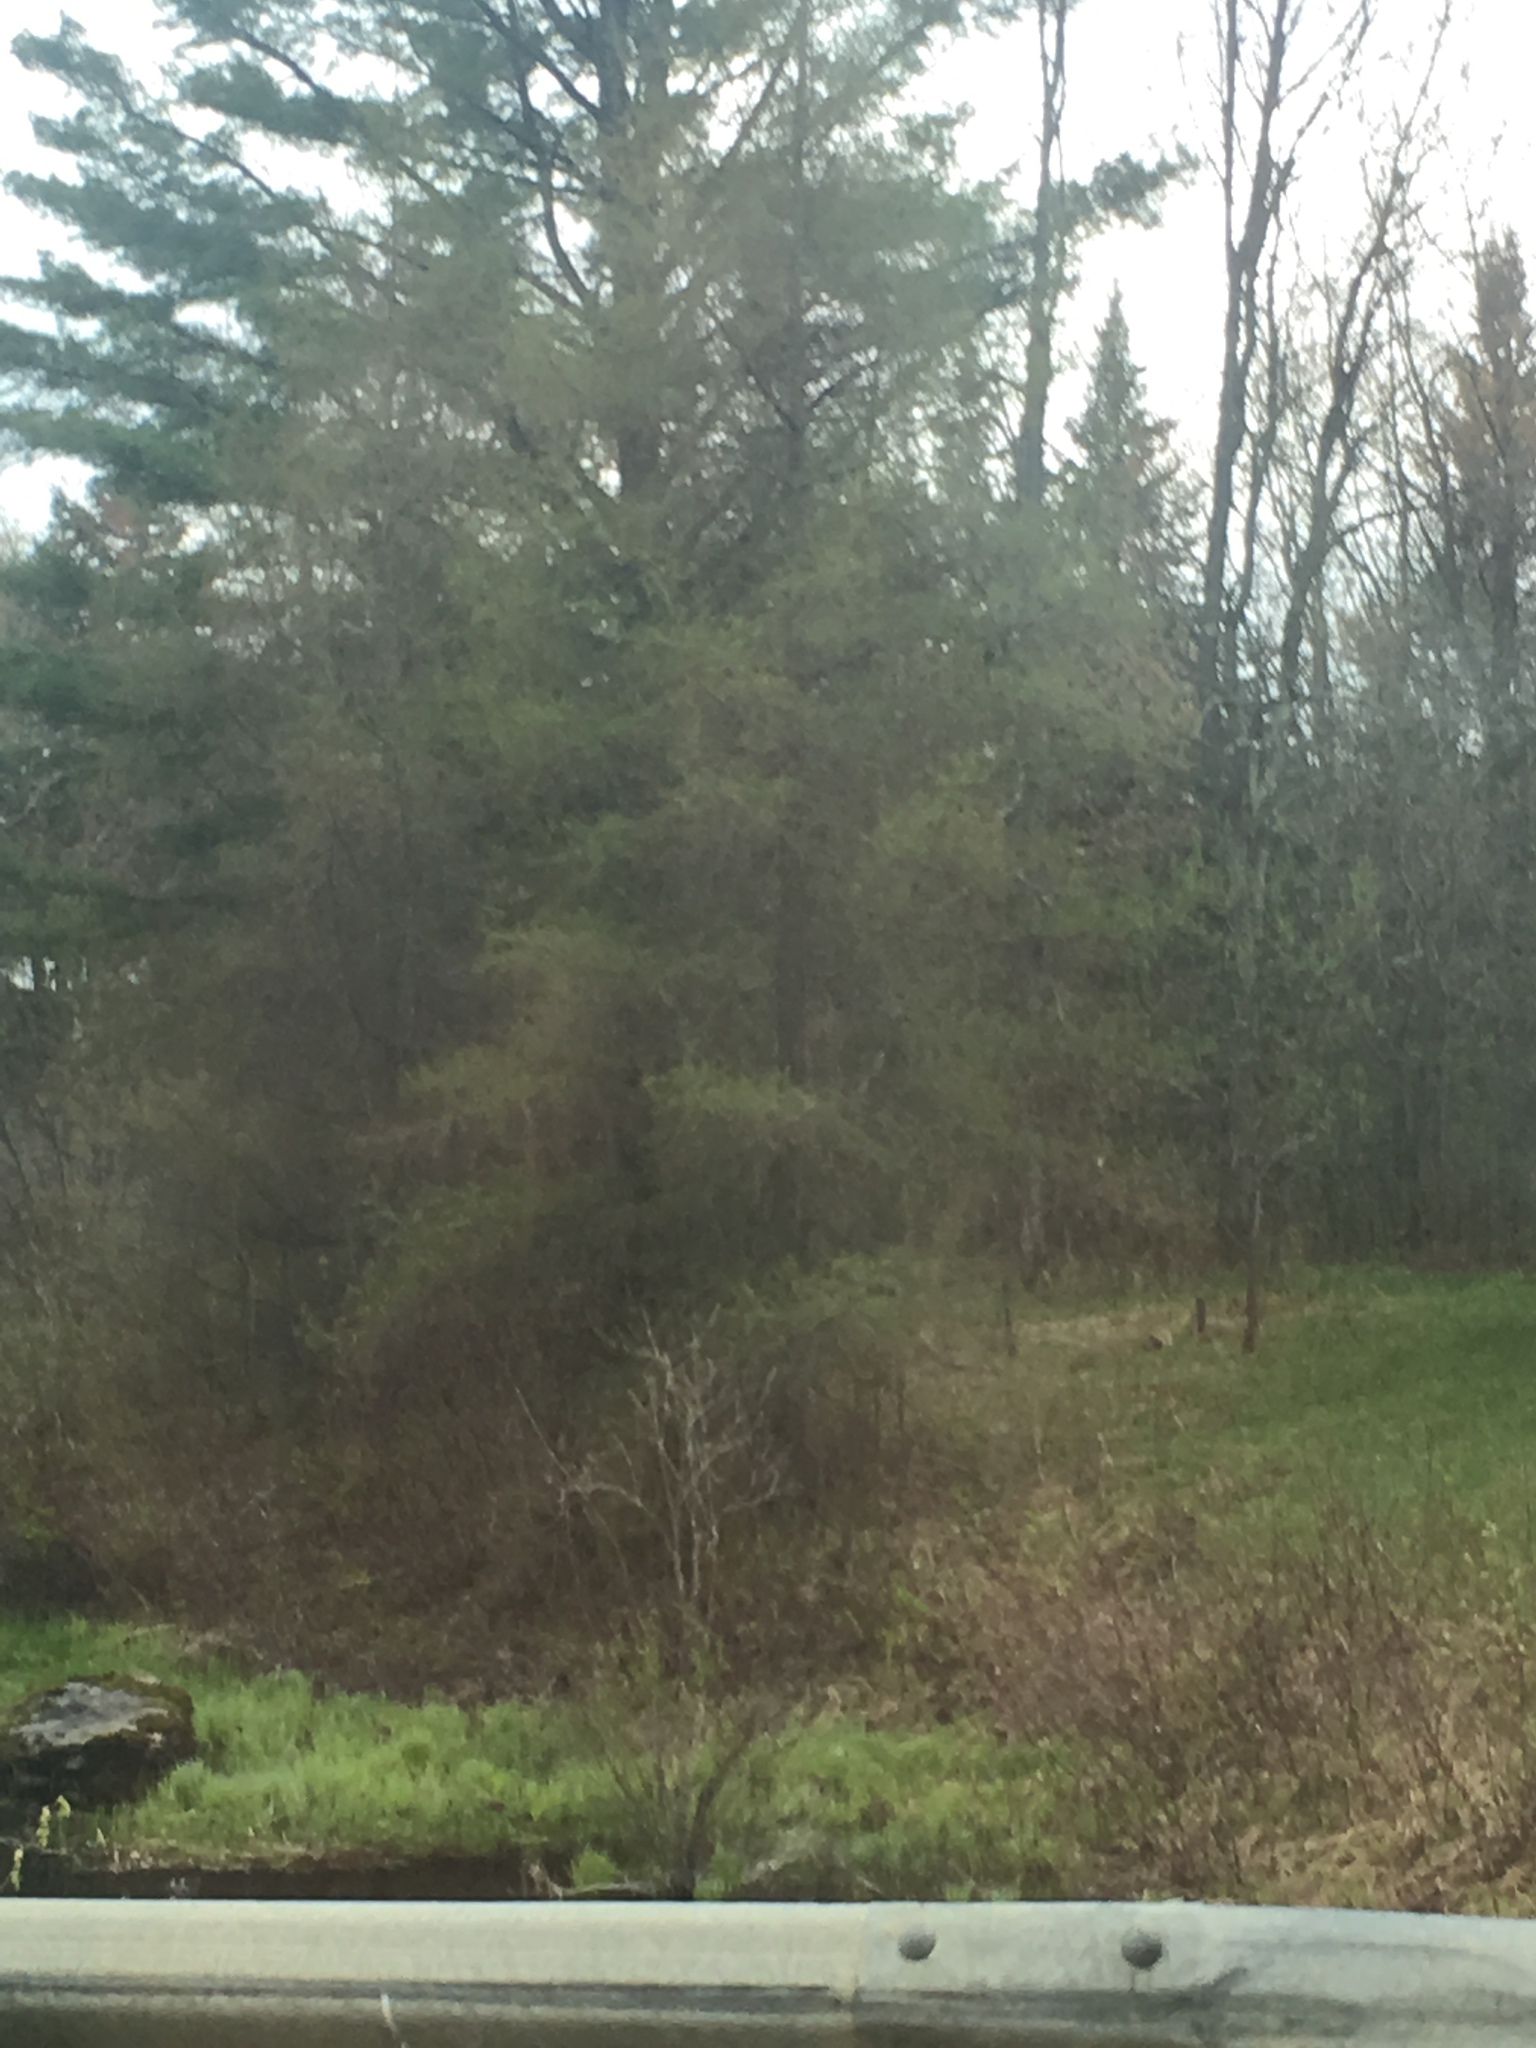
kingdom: Plantae
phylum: Tracheophyta
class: Pinopsida
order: Pinales
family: Pinaceae
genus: Larix
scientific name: Larix laricina
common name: American larch
